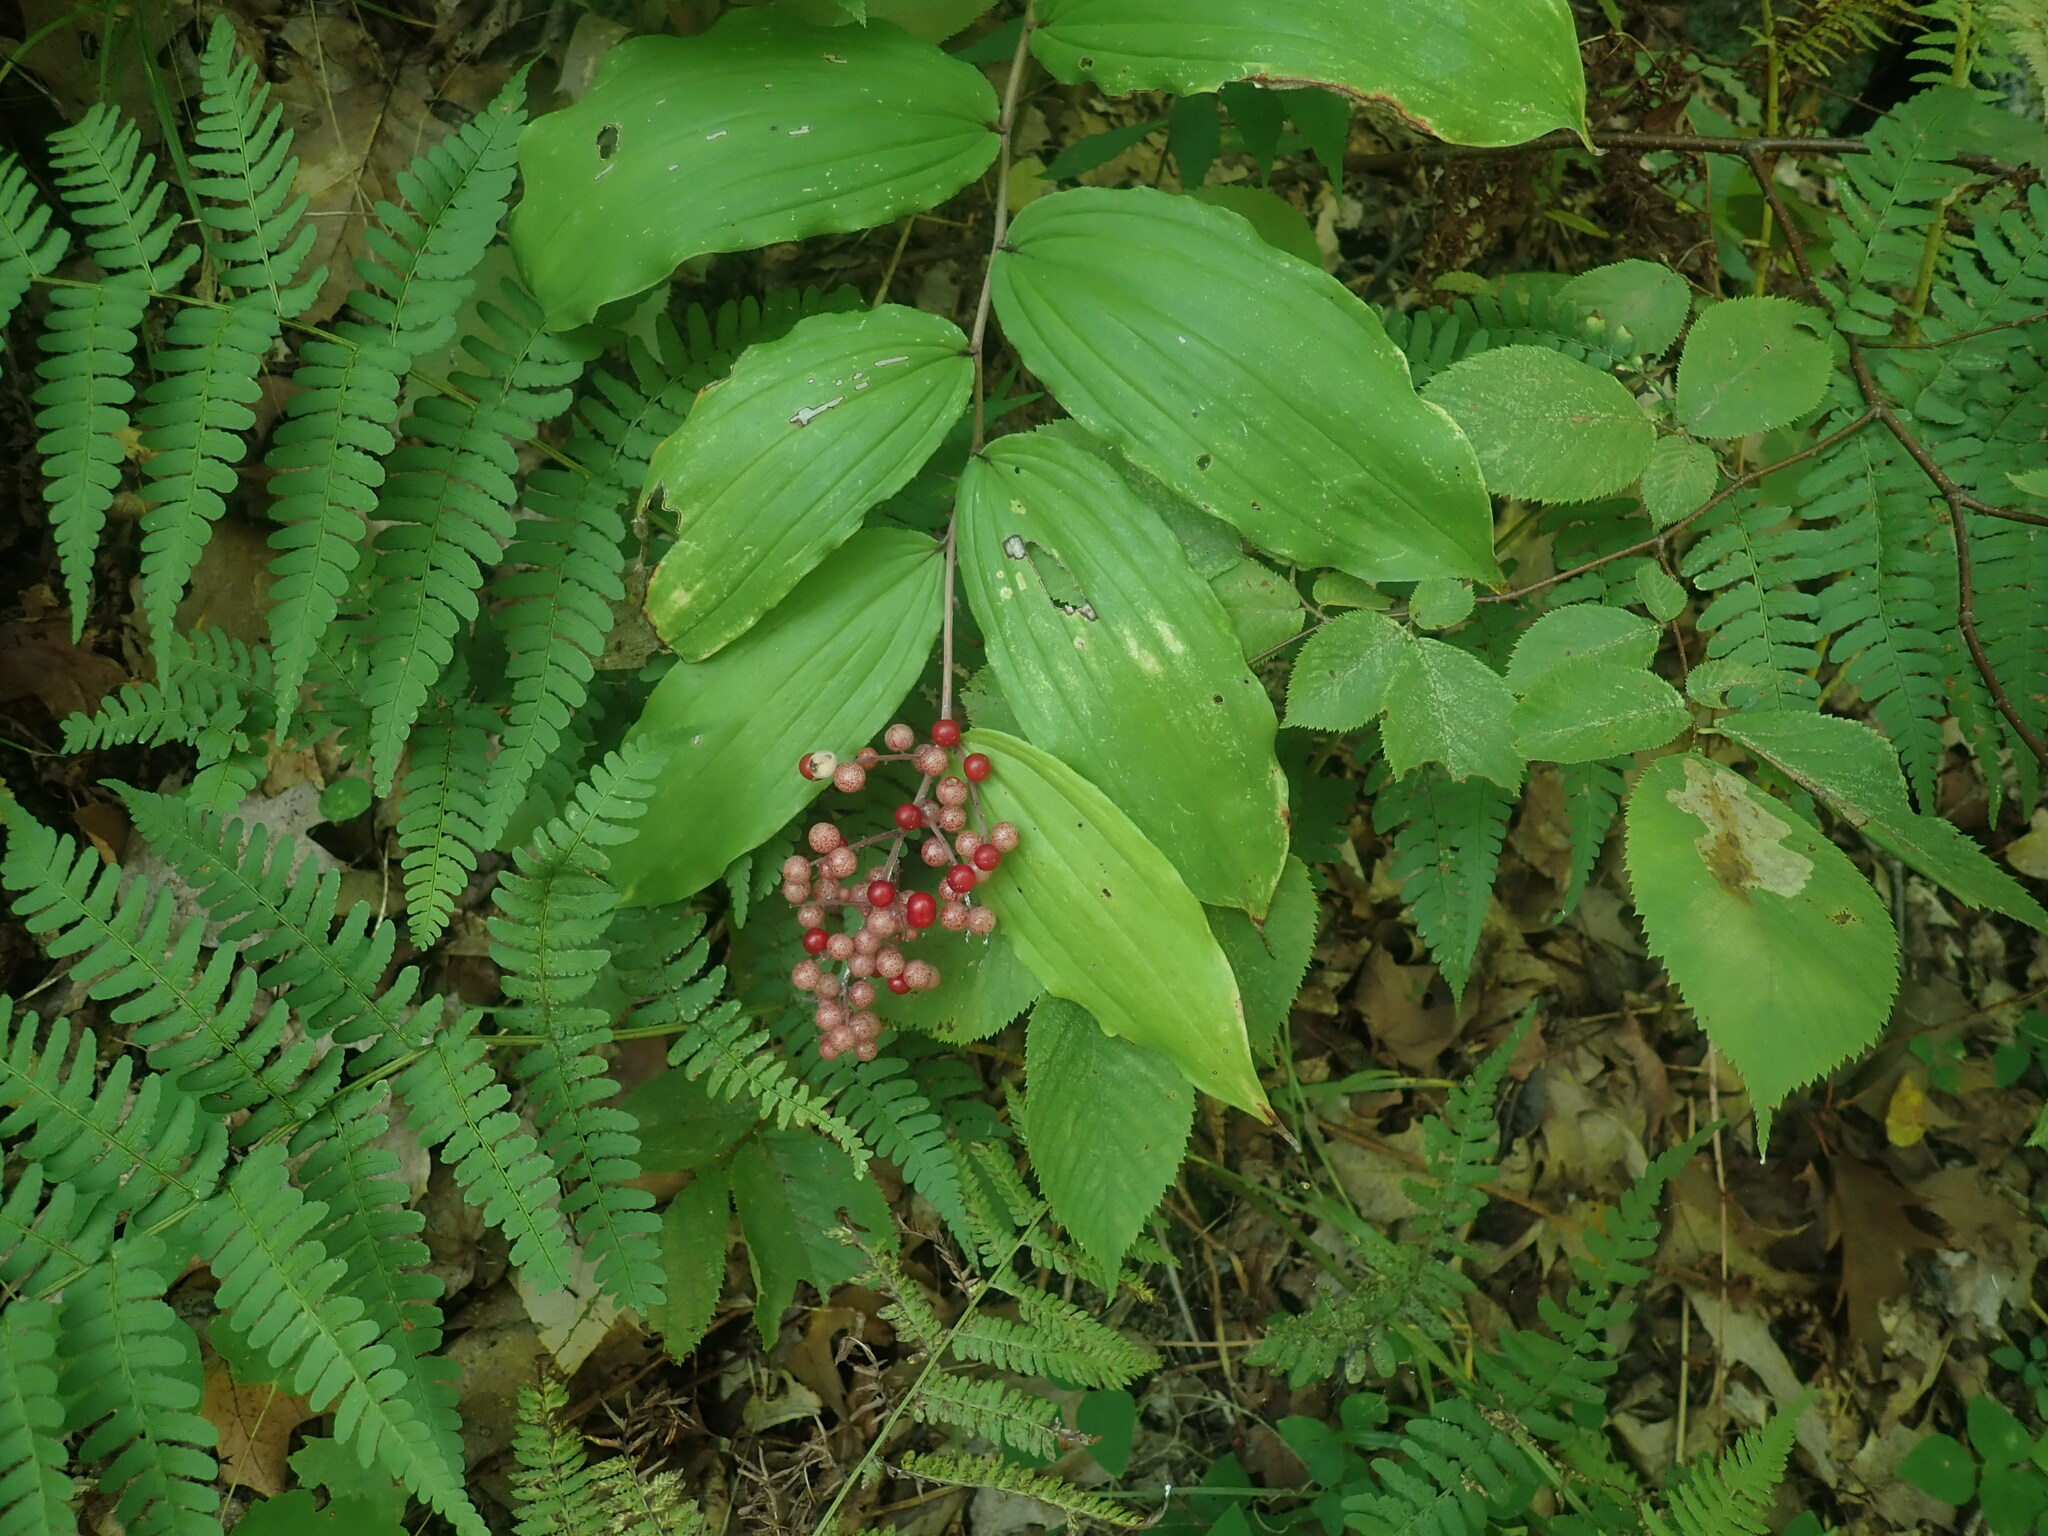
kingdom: Plantae
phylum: Tracheophyta
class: Liliopsida
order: Asparagales
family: Asparagaceae
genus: Maianthemum
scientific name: Maianthemum racemosum
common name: False spikenard
